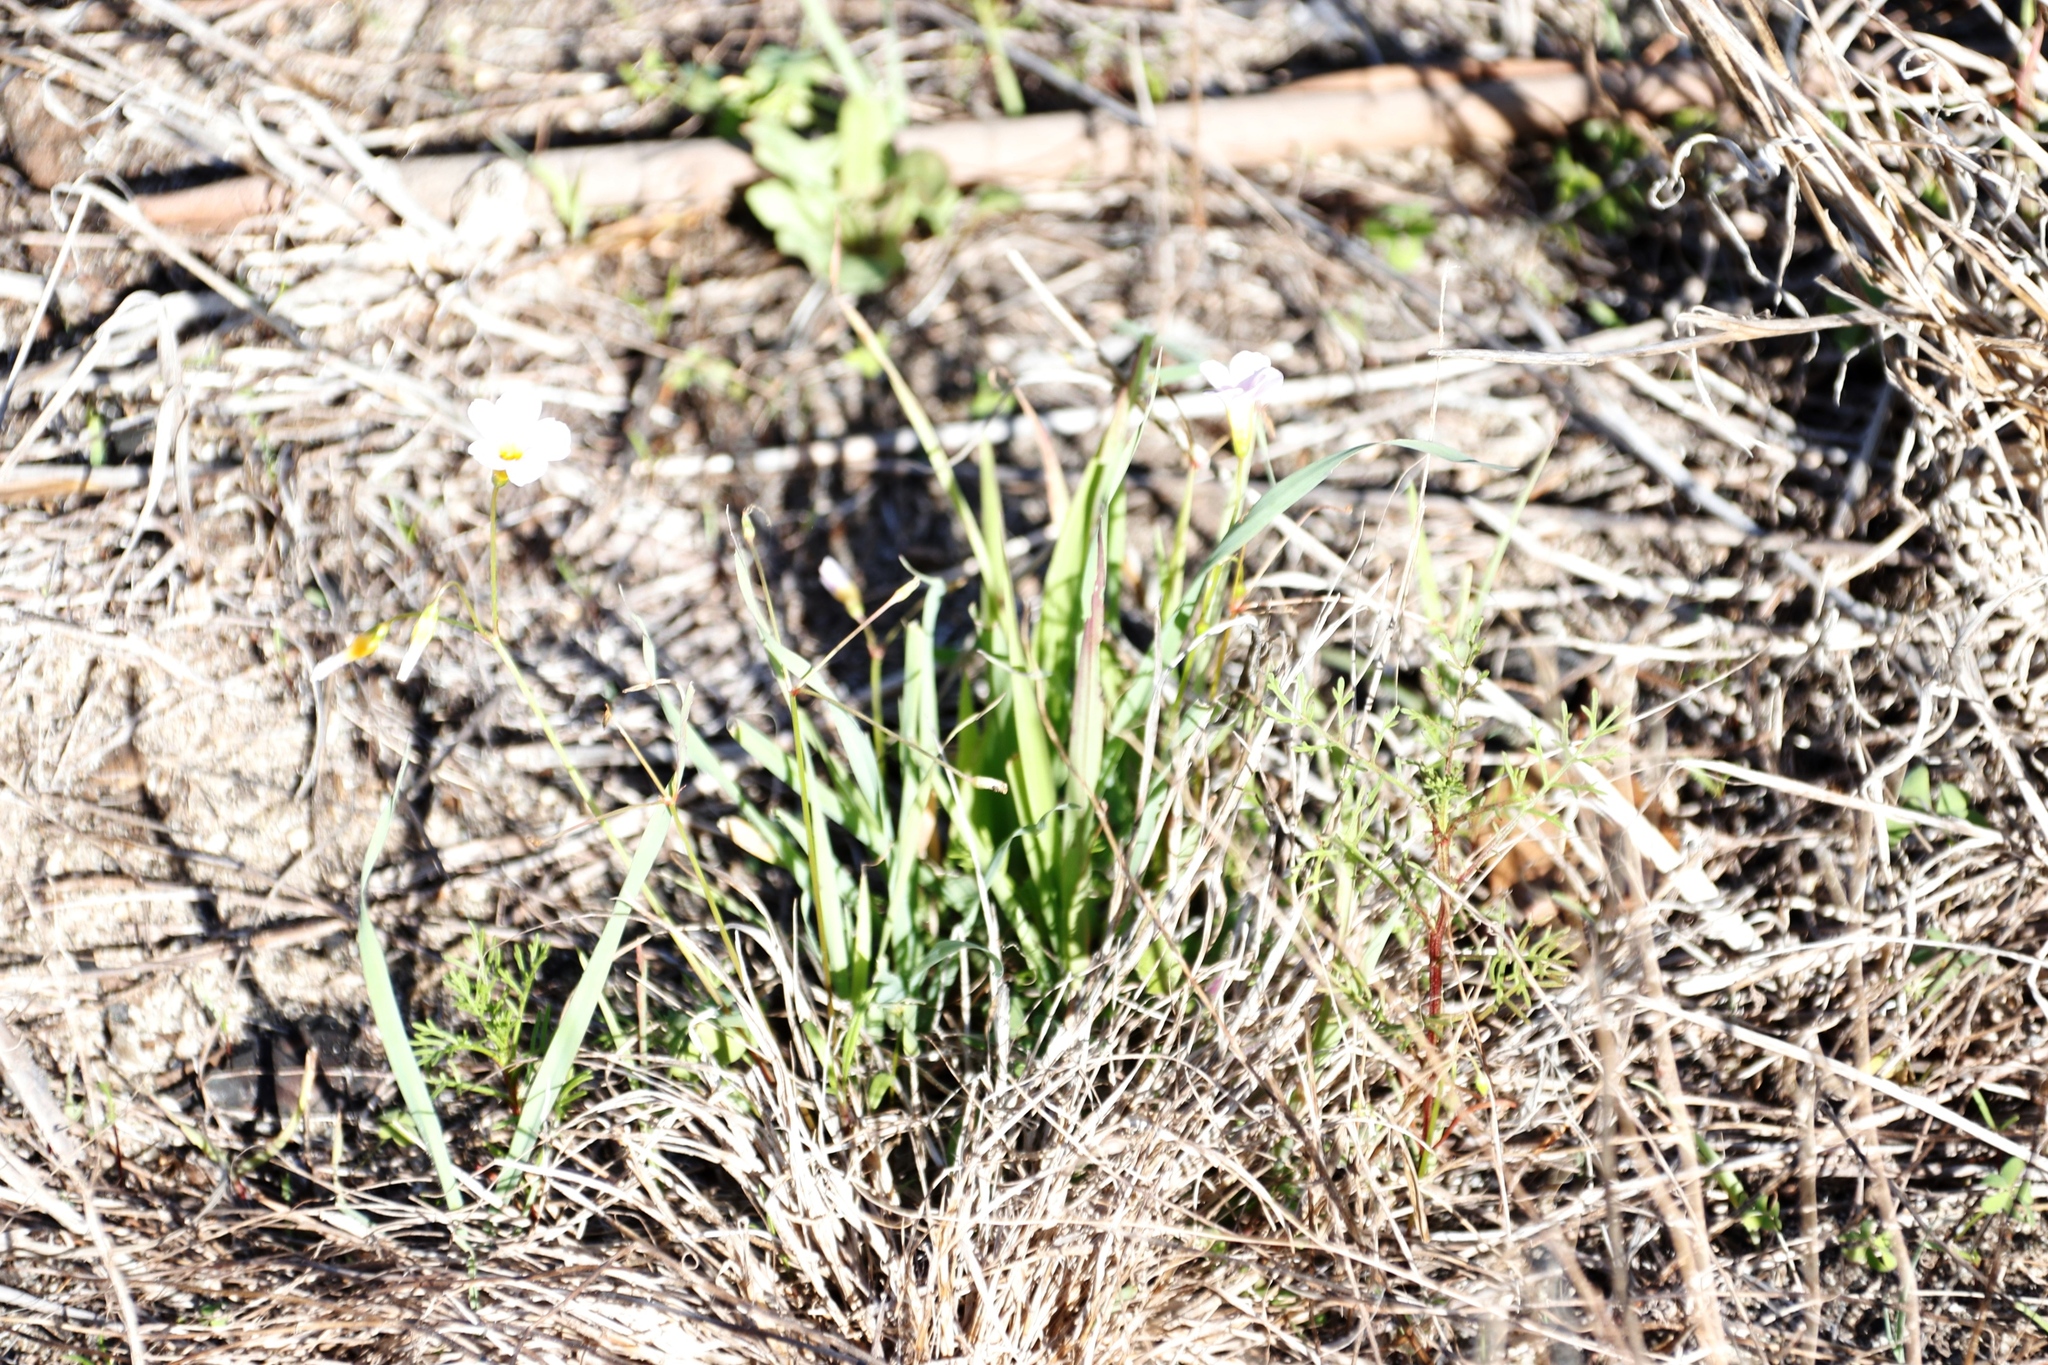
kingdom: Plantae
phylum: Tracheophyta
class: Magnoliopsida
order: Oxalidales
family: Oxalidaceae
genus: Oxalis
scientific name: Oxalis caprina
